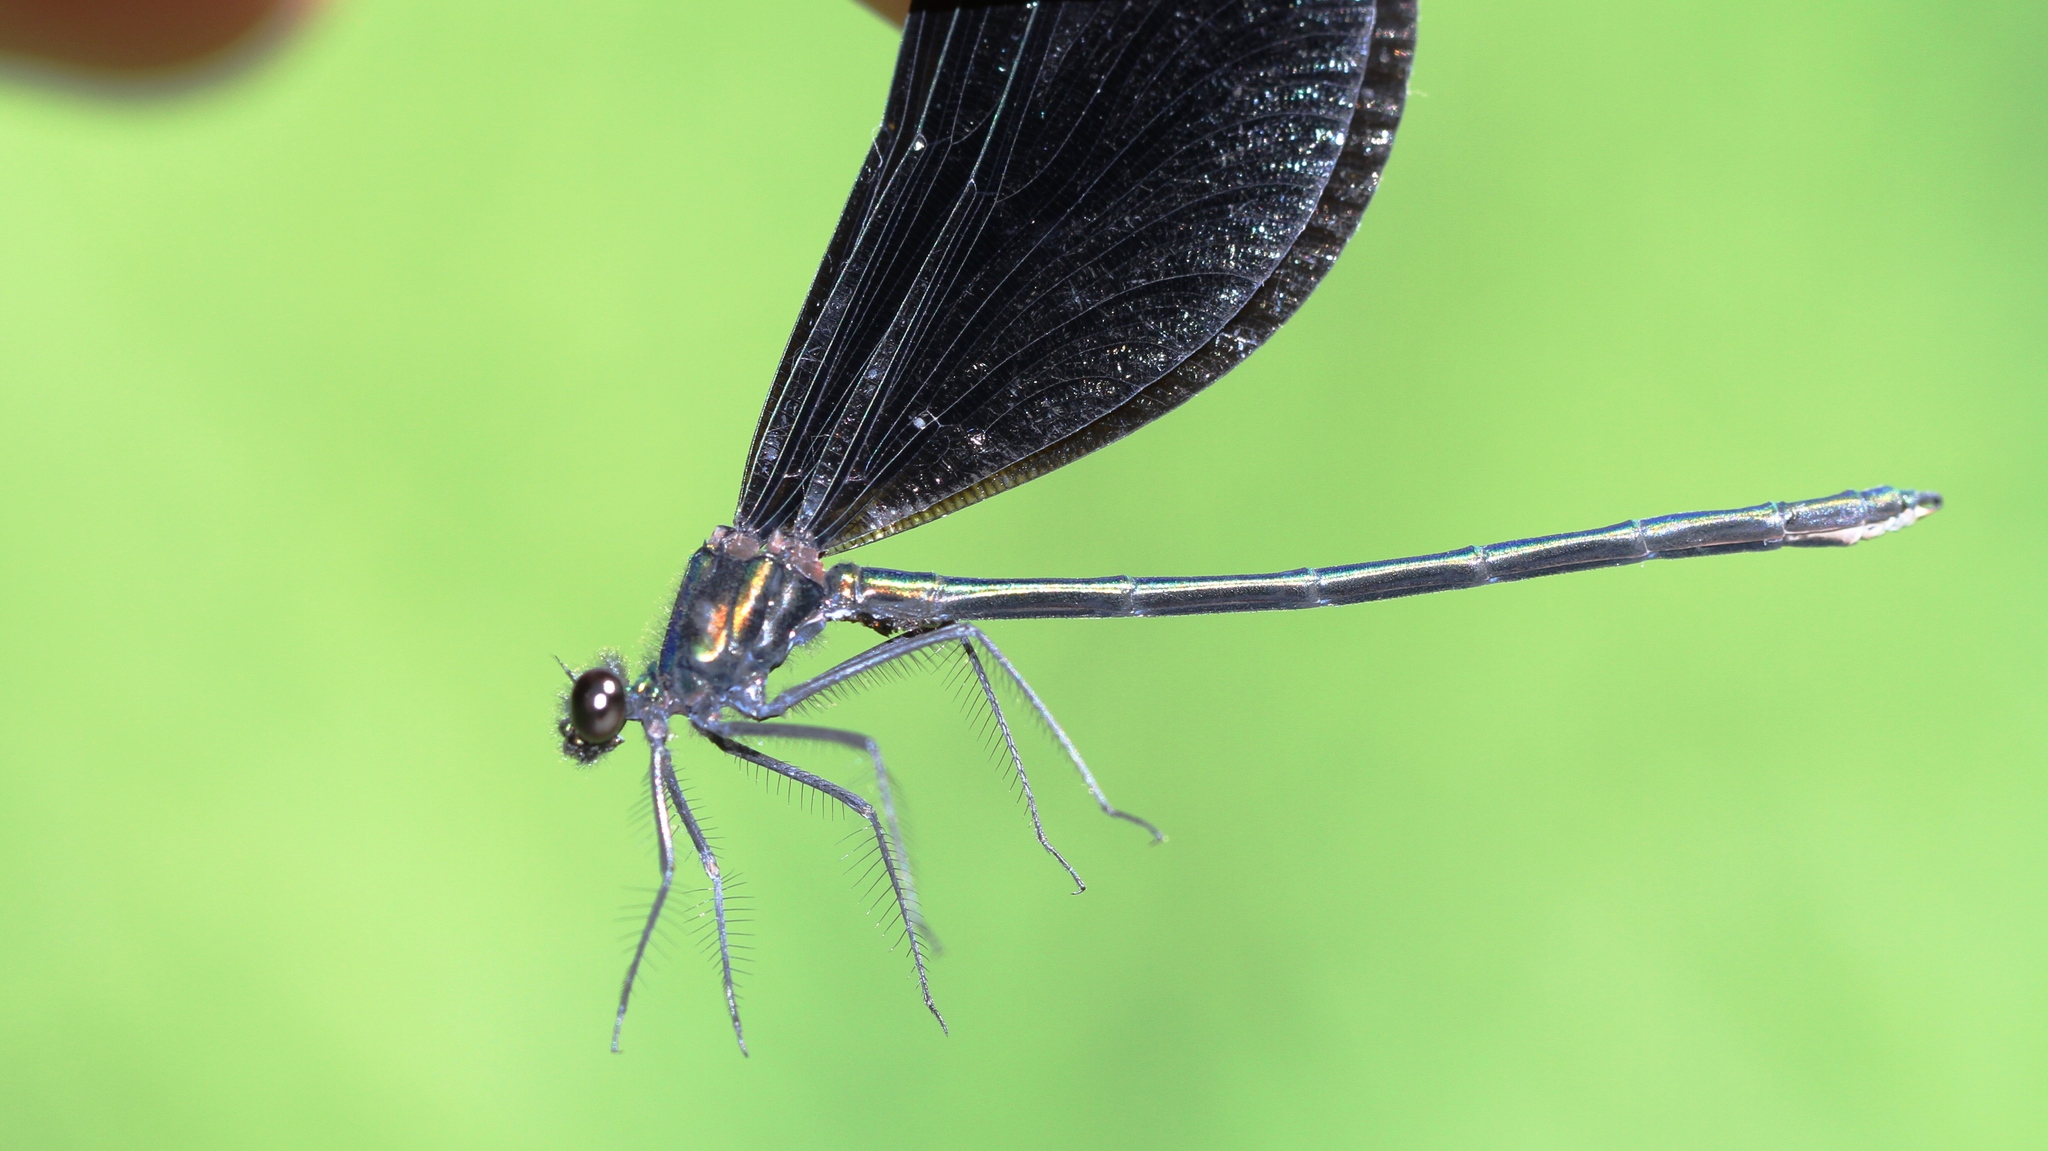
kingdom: Animalia
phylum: Arthropoda
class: Insecta
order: Odonata
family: Calopterygidae
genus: Calopteryx
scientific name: Calopteryx maculata
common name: Ebony jewelwing
